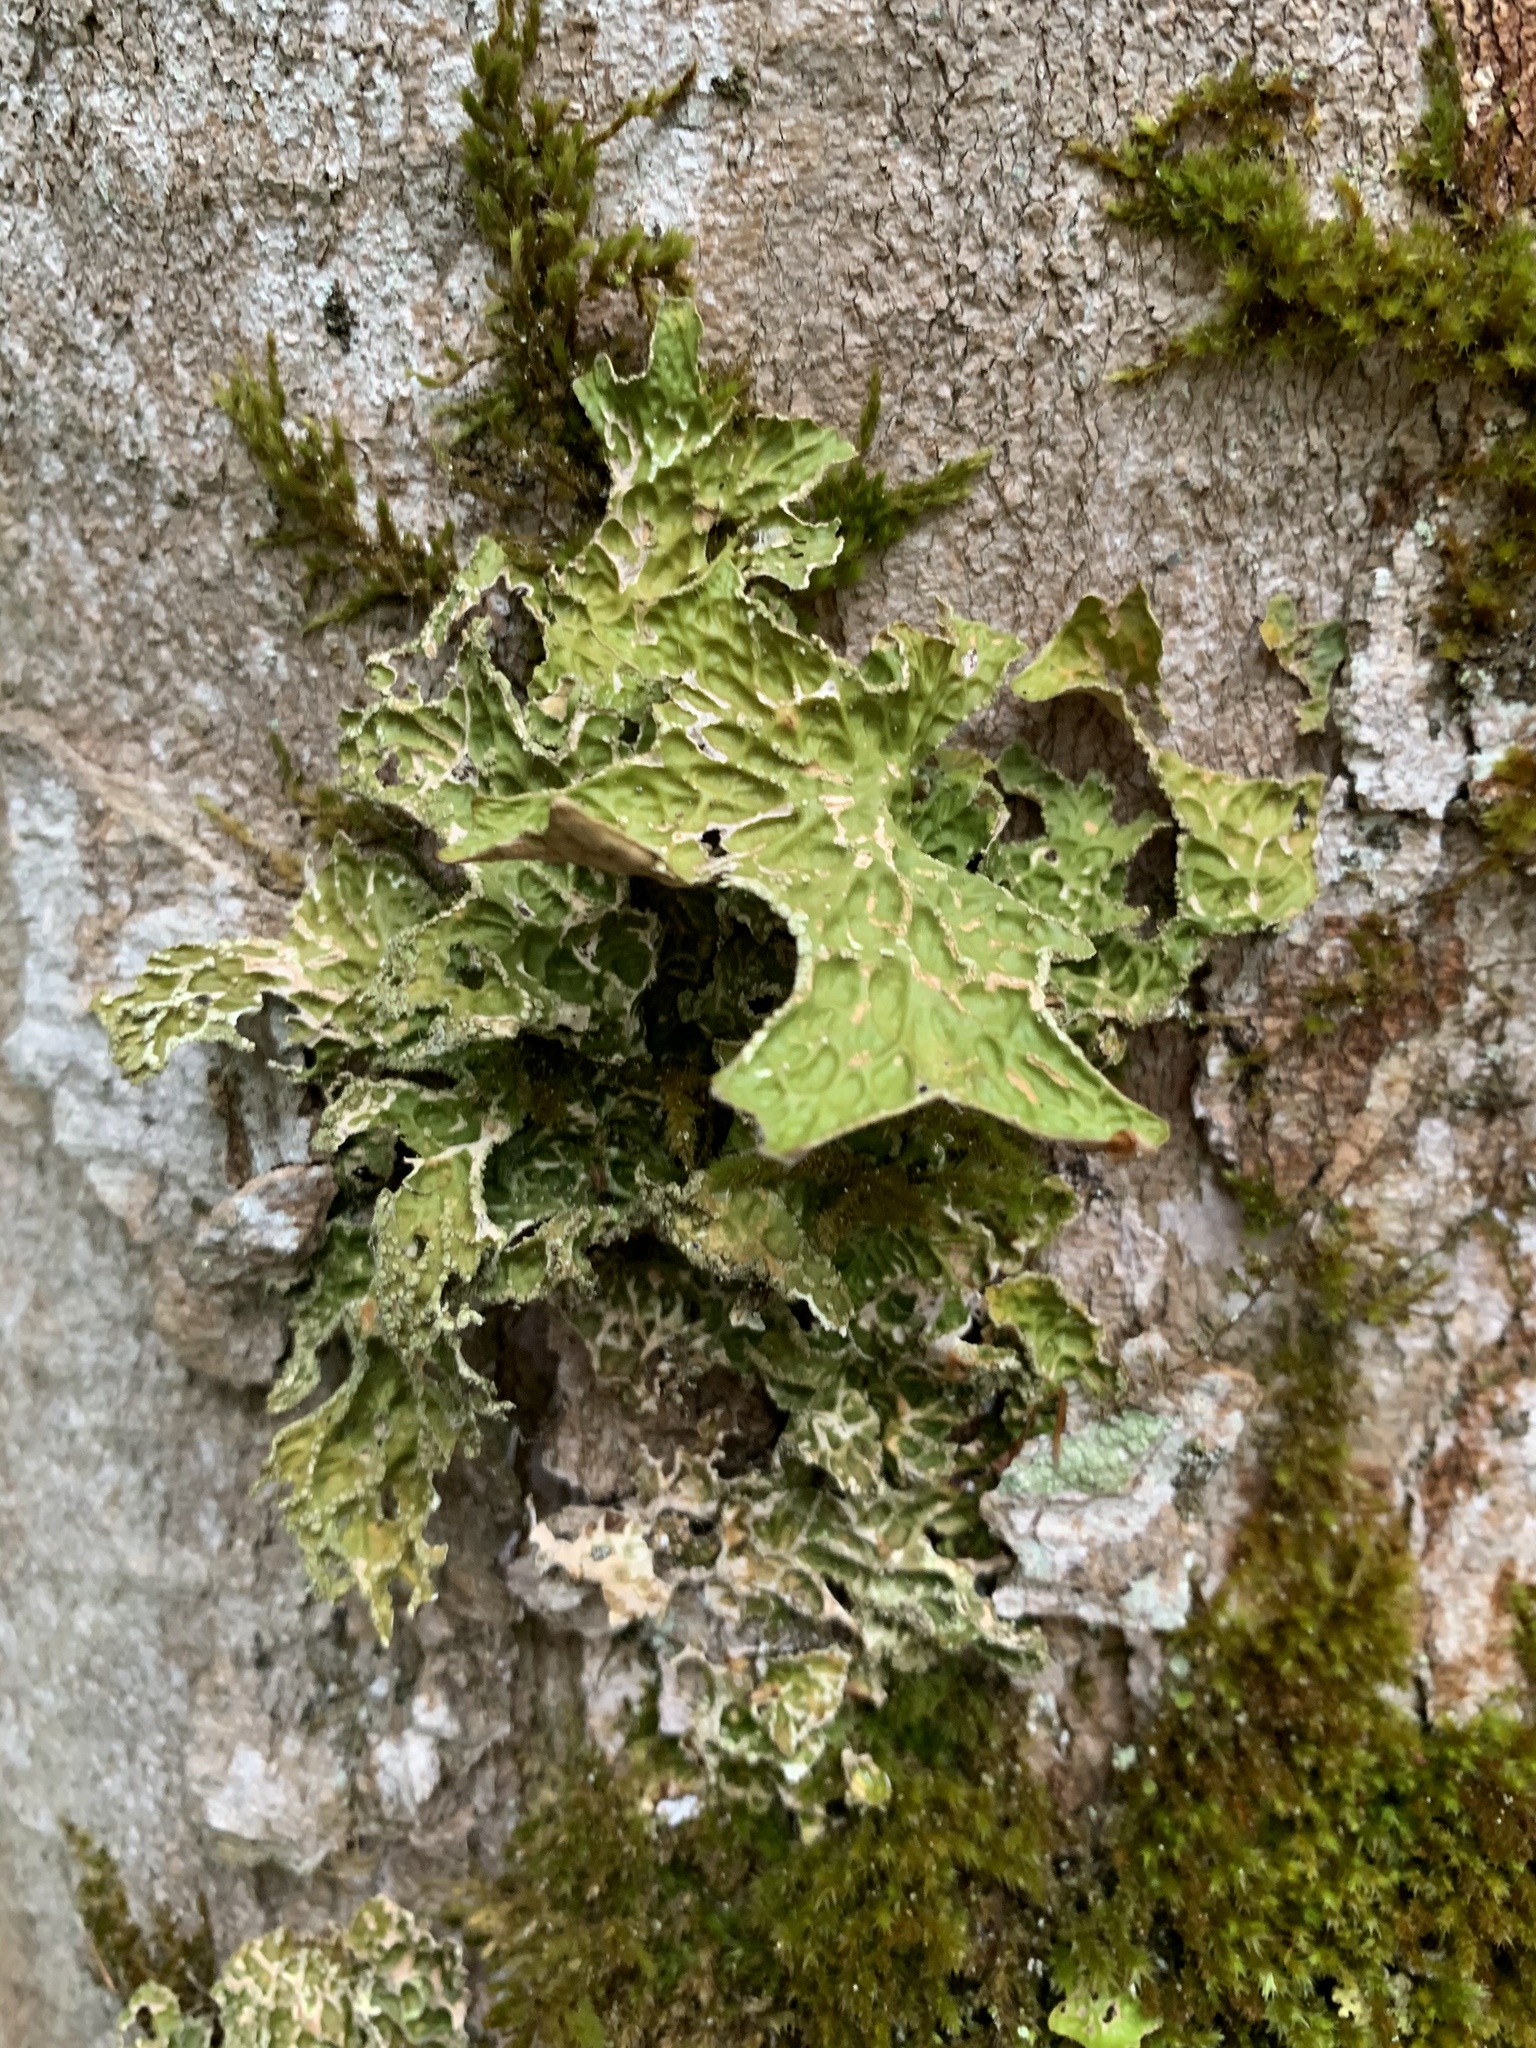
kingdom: Fungi
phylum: Ascomycota
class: Lecanoromycetes
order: Peltigerales
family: Lobariaceae
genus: Lobaria
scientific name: Lobaria pulmonaria
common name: Lungwort
